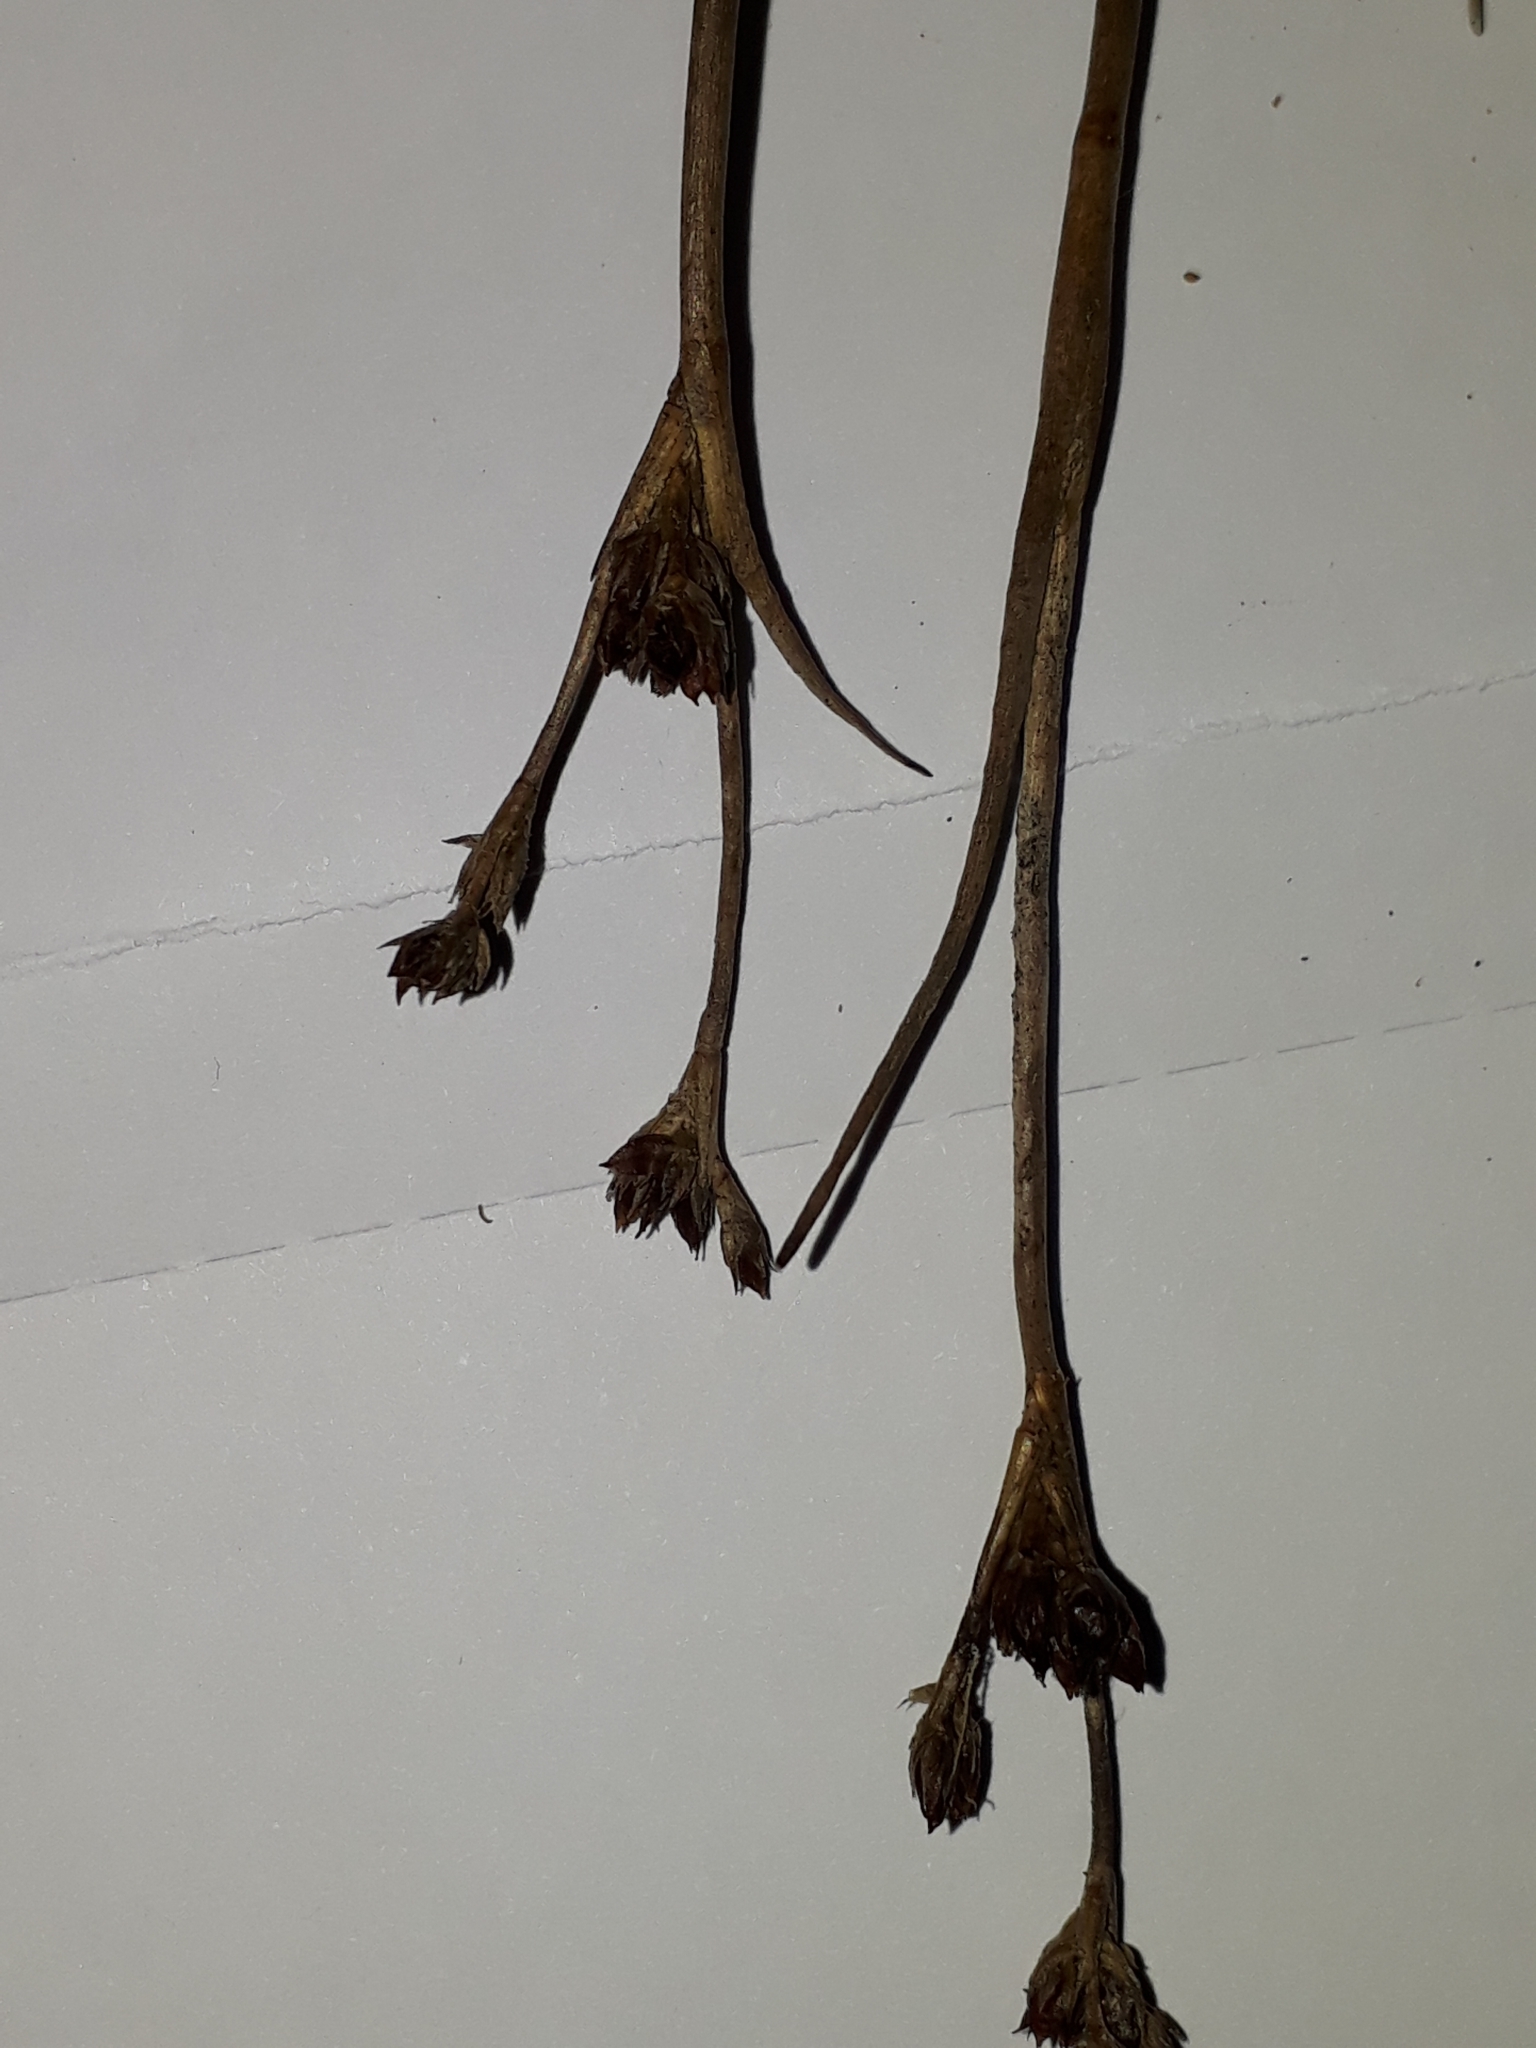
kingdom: Plantae
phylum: Tracheophyta
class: Liliopsida
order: Poales
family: Juncaceae
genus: Juncus
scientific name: Juncus bulbosus
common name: Bulbous rush
